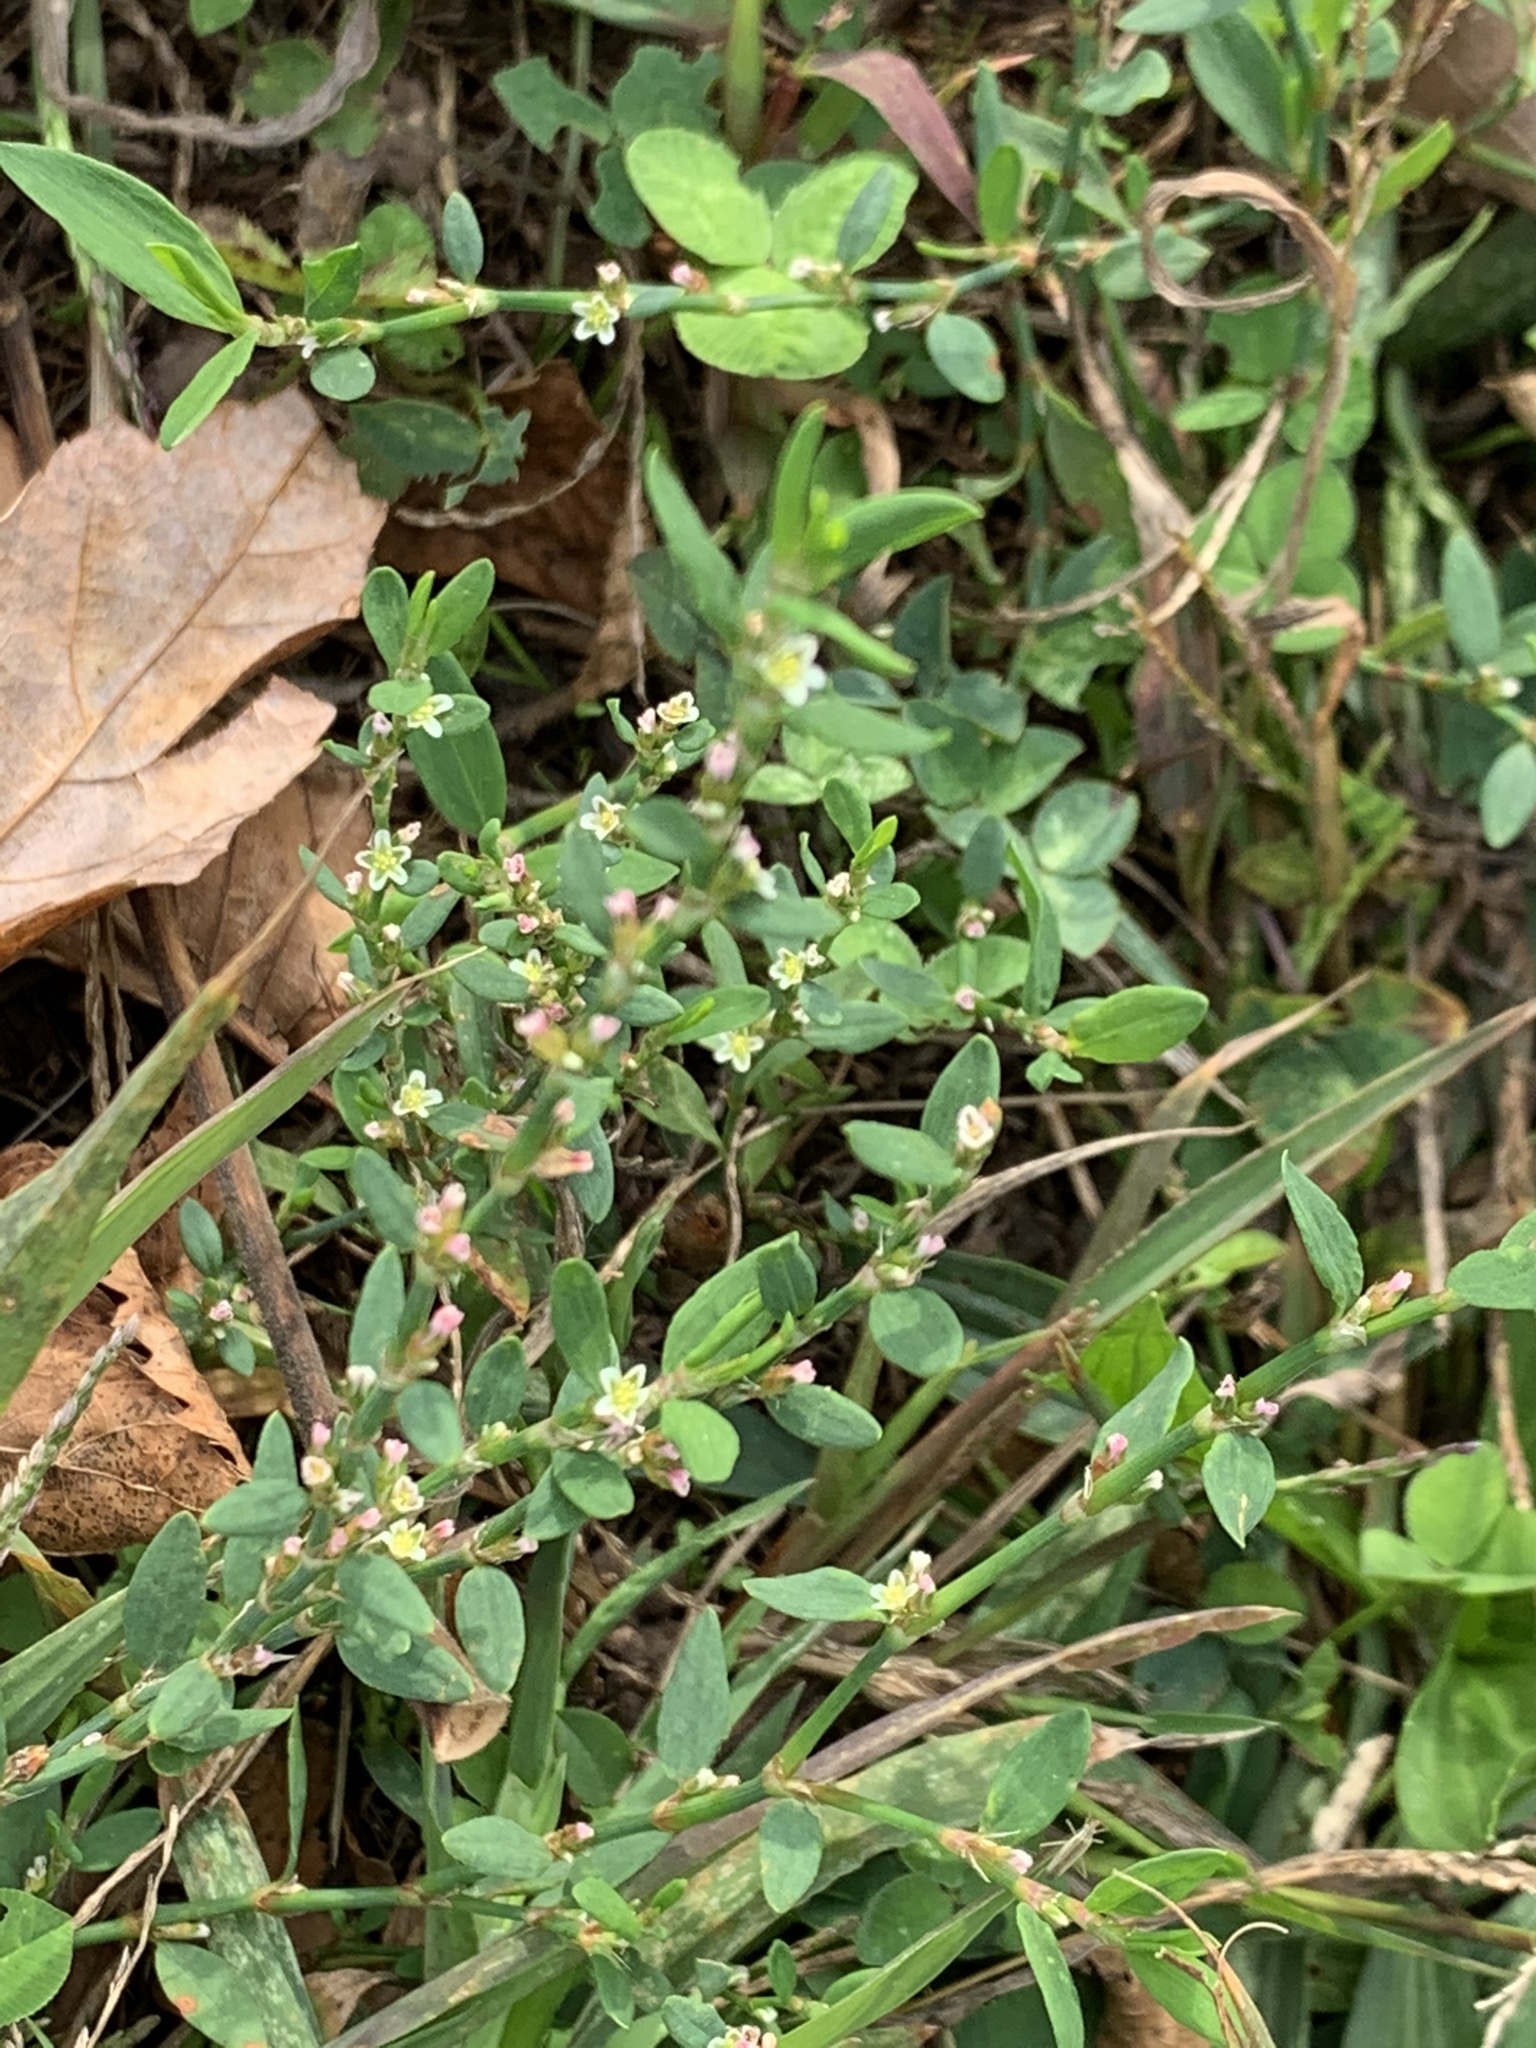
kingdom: Plantae
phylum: Tracheophyta
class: Magnoliopsida
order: Caryophyllales
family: Polygonaceae
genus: Polygonum
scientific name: Polygonum aviculare
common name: Prostrate knotweed
